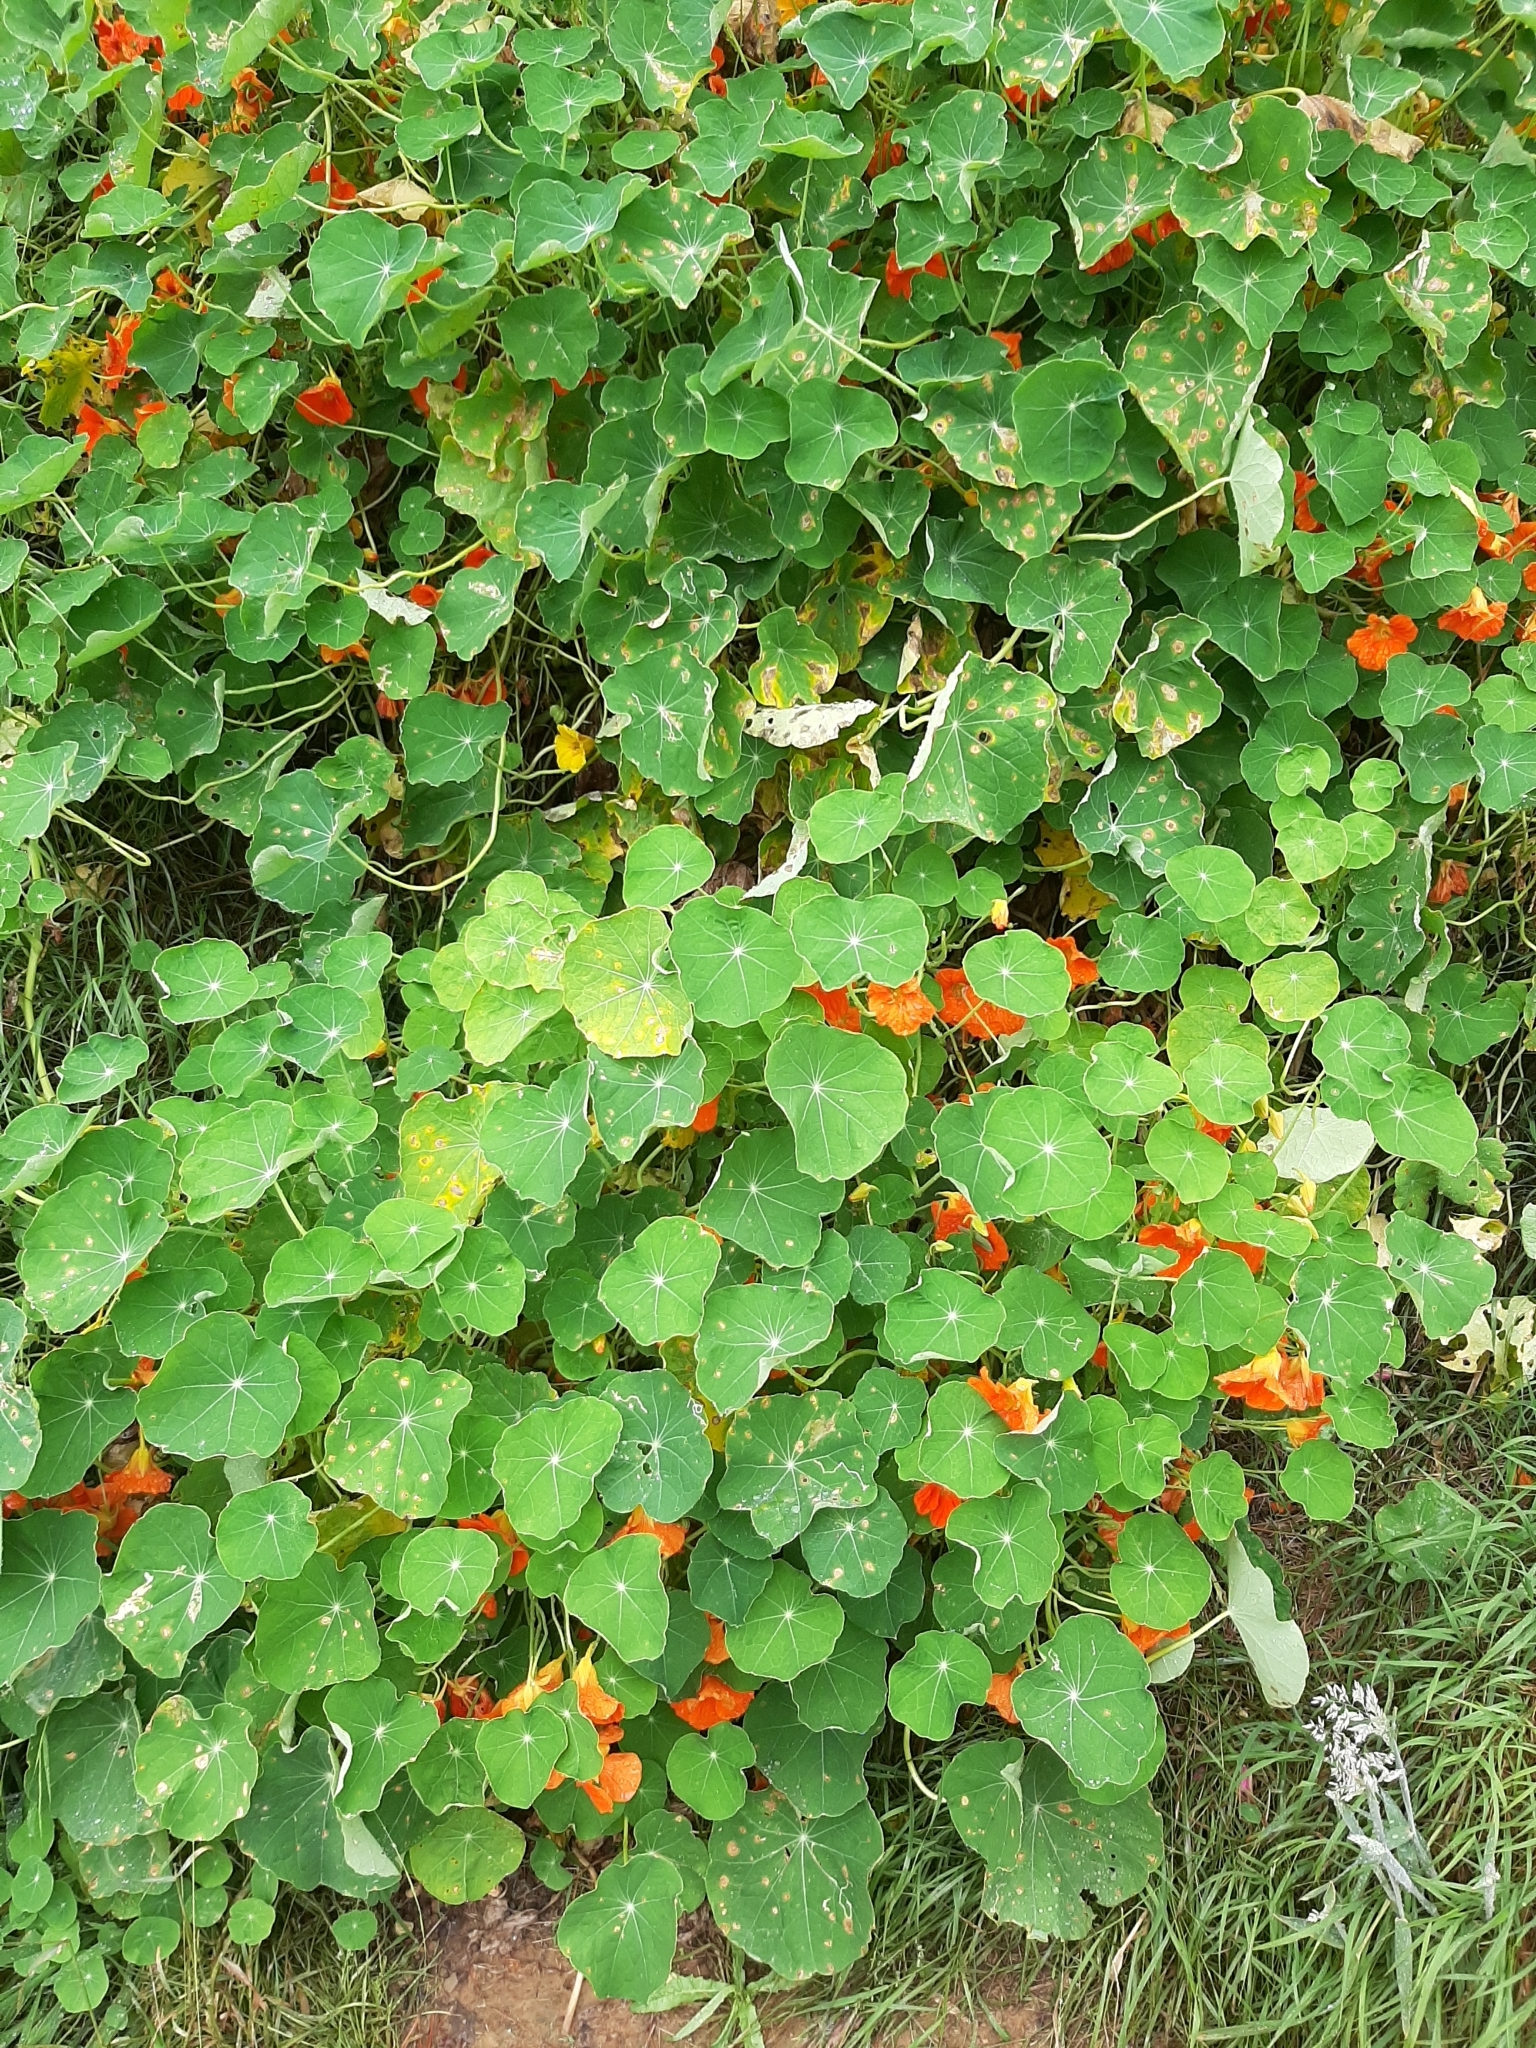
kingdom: Plantae
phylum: Tracheophyta
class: Magnoliopsida
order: Brassicales
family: Tropaeolaceae
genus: Tropaeolum
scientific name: Tropaeolum majus
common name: Nasturtium
